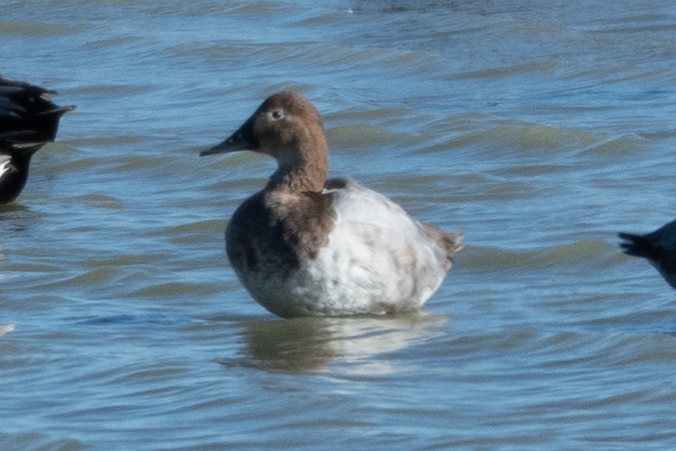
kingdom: Animalia
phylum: Chordata
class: Aves
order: Anseriformes
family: Anatidae
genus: Aythya
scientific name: Aythya valisineria
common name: Canvasback
